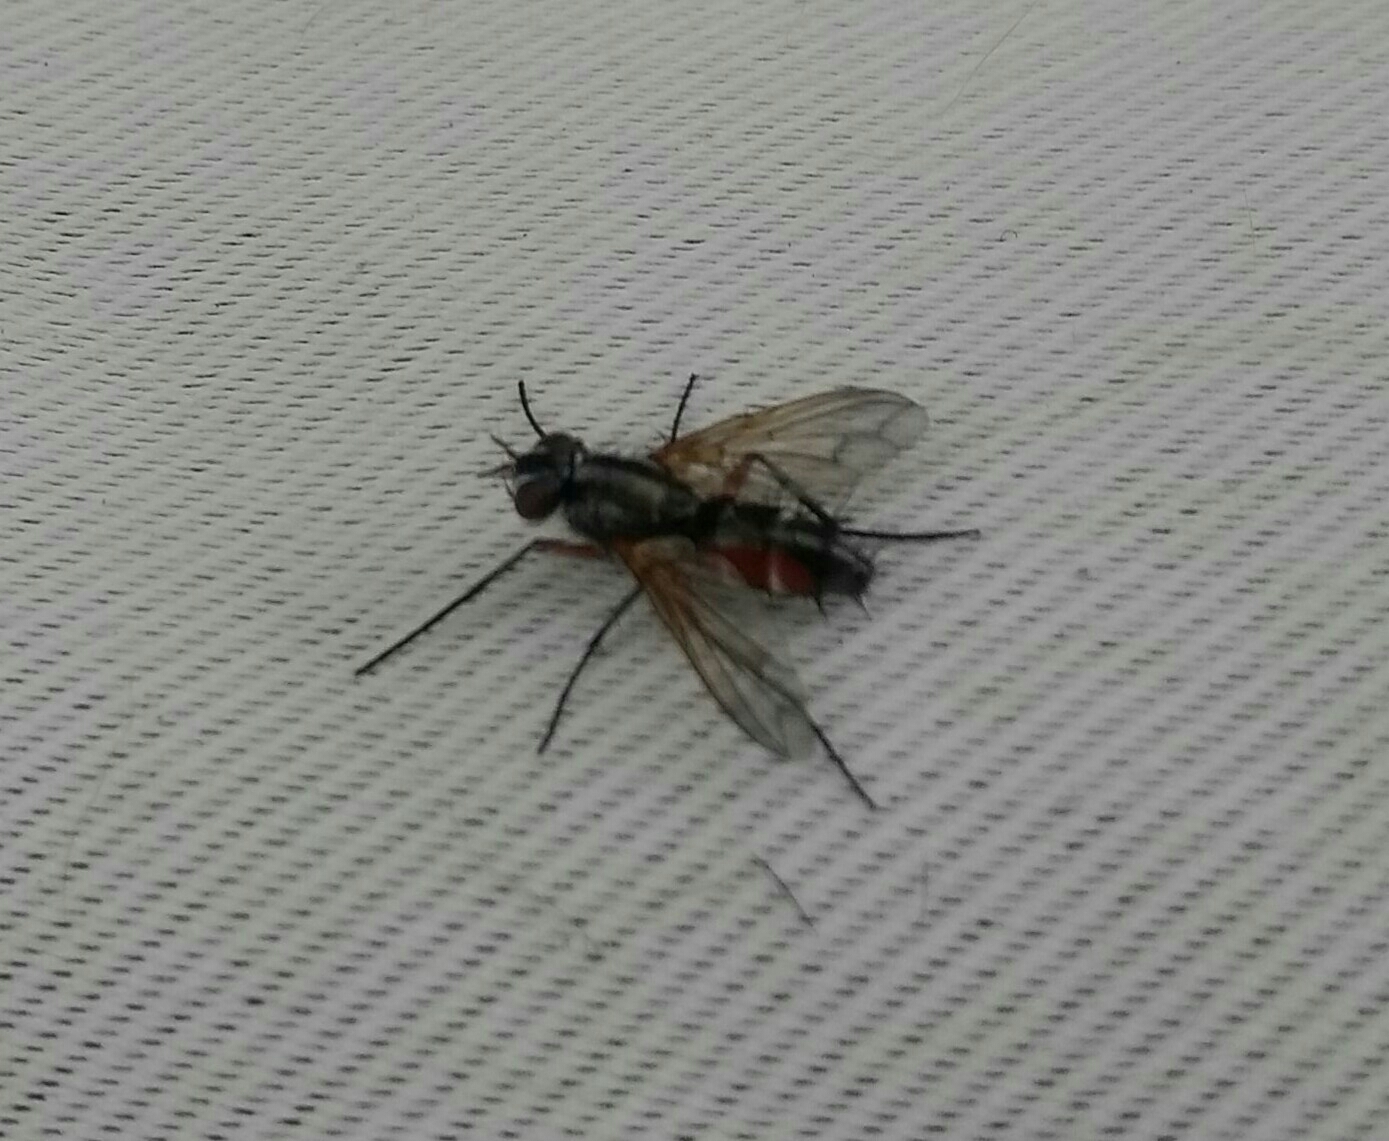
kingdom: Animalia
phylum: Arthropoda
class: Insecta
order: Diptera
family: Tachinidae
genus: Mintho
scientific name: Mintho rufiventris
